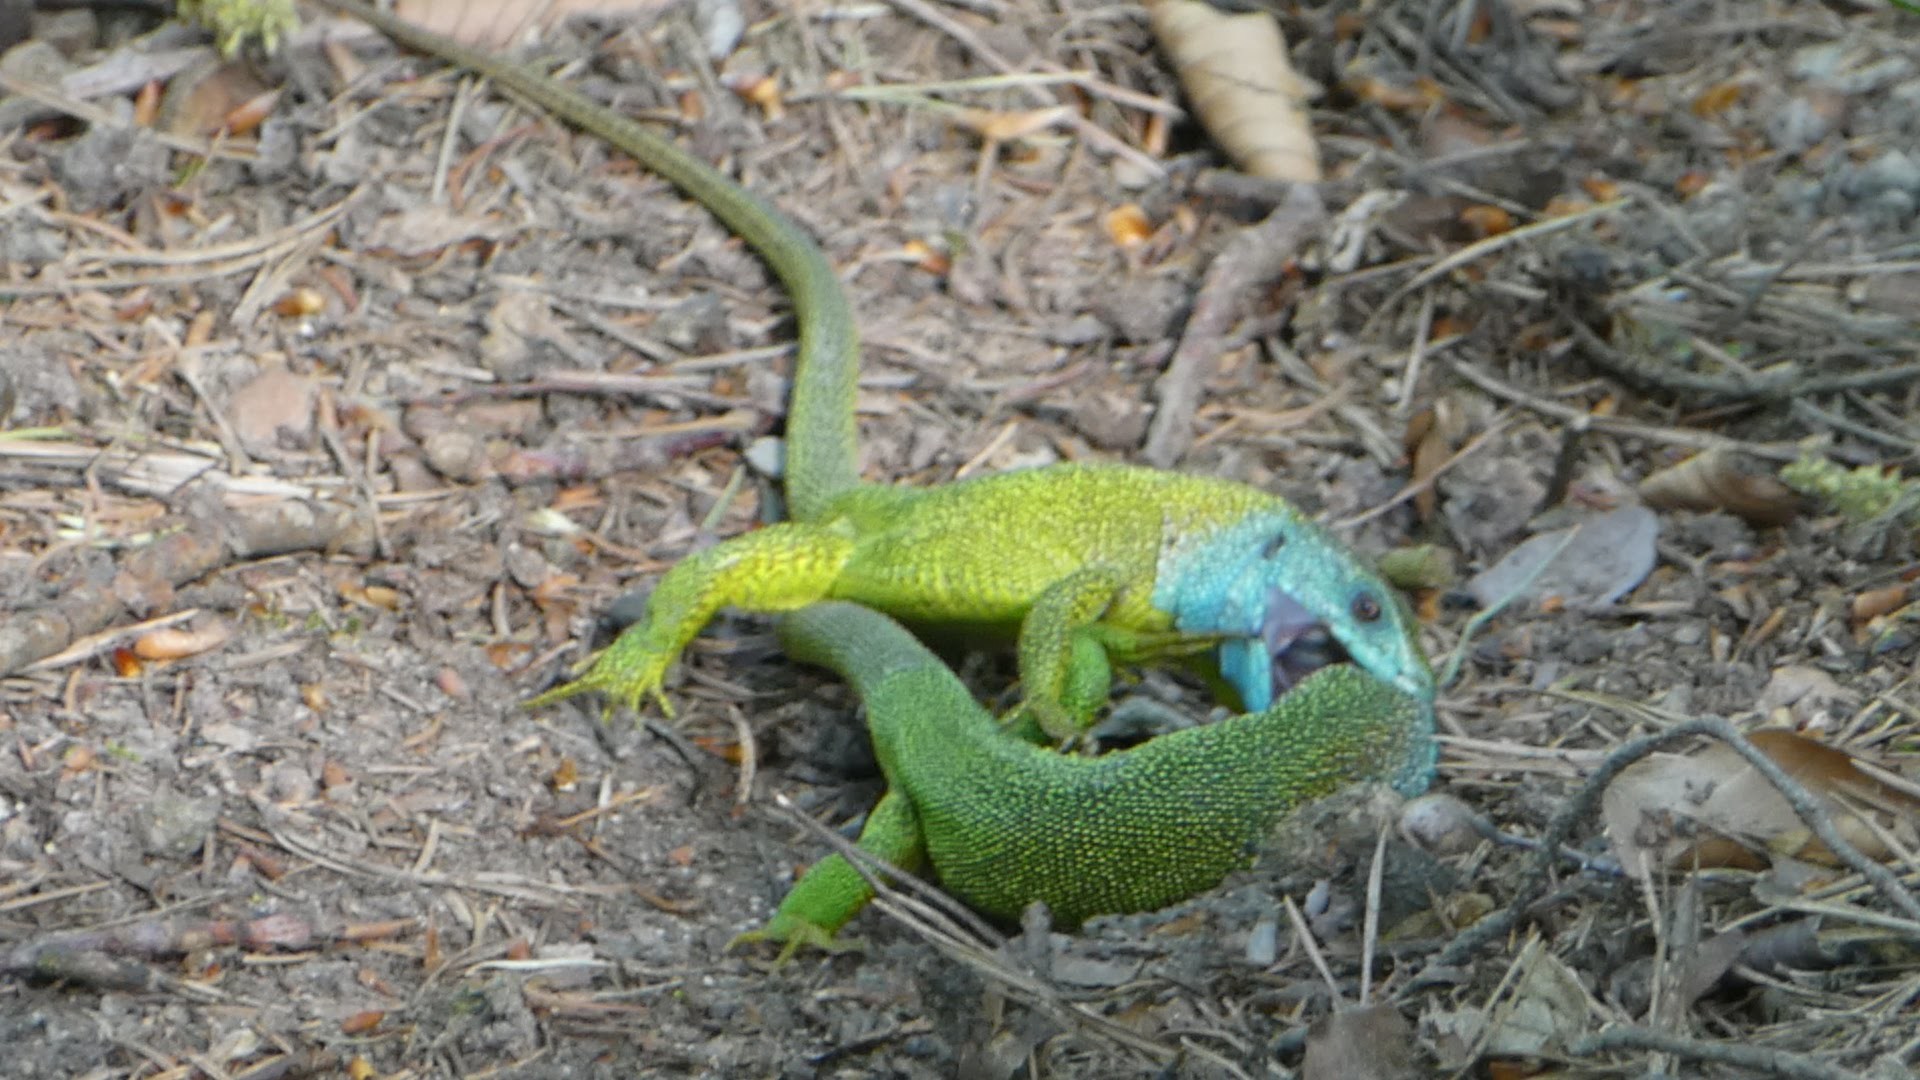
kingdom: Animalia
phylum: Chordata
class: Squamata
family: Lacertidae
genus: Lacerta
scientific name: Lacerta viridis
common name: European green lizard
